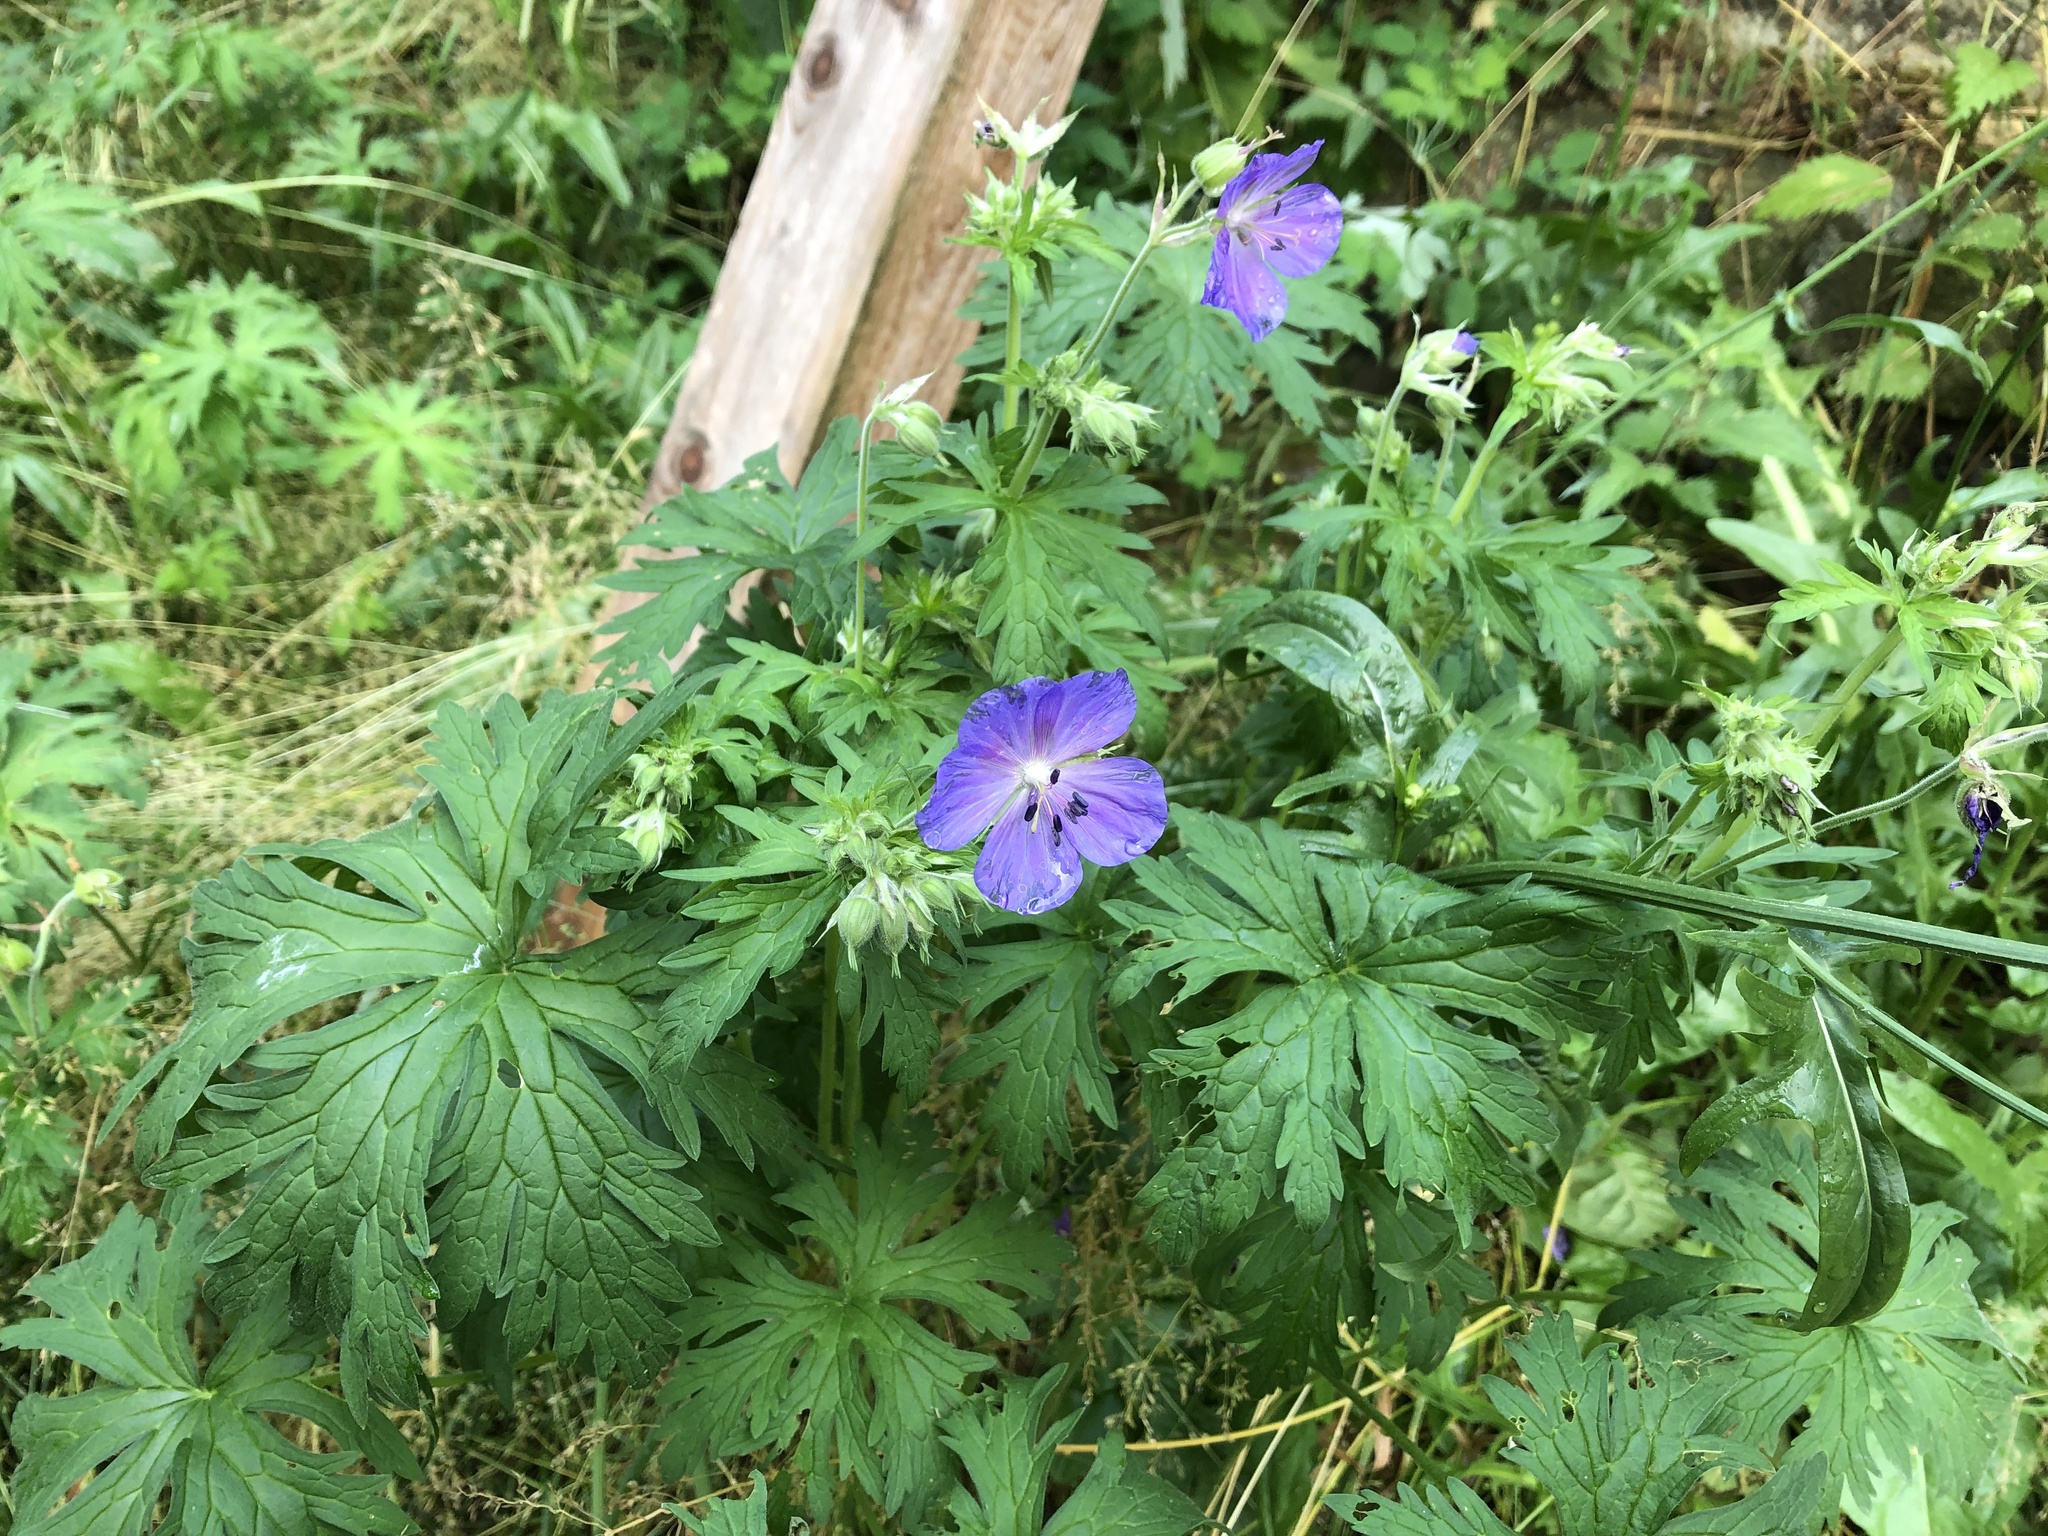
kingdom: Plantae
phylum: Tracheophyta
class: Magnoliopsida
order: Geraniales
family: Geraniaceae
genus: Geranium
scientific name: Geranium pratense
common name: Meadow crane's-bill
